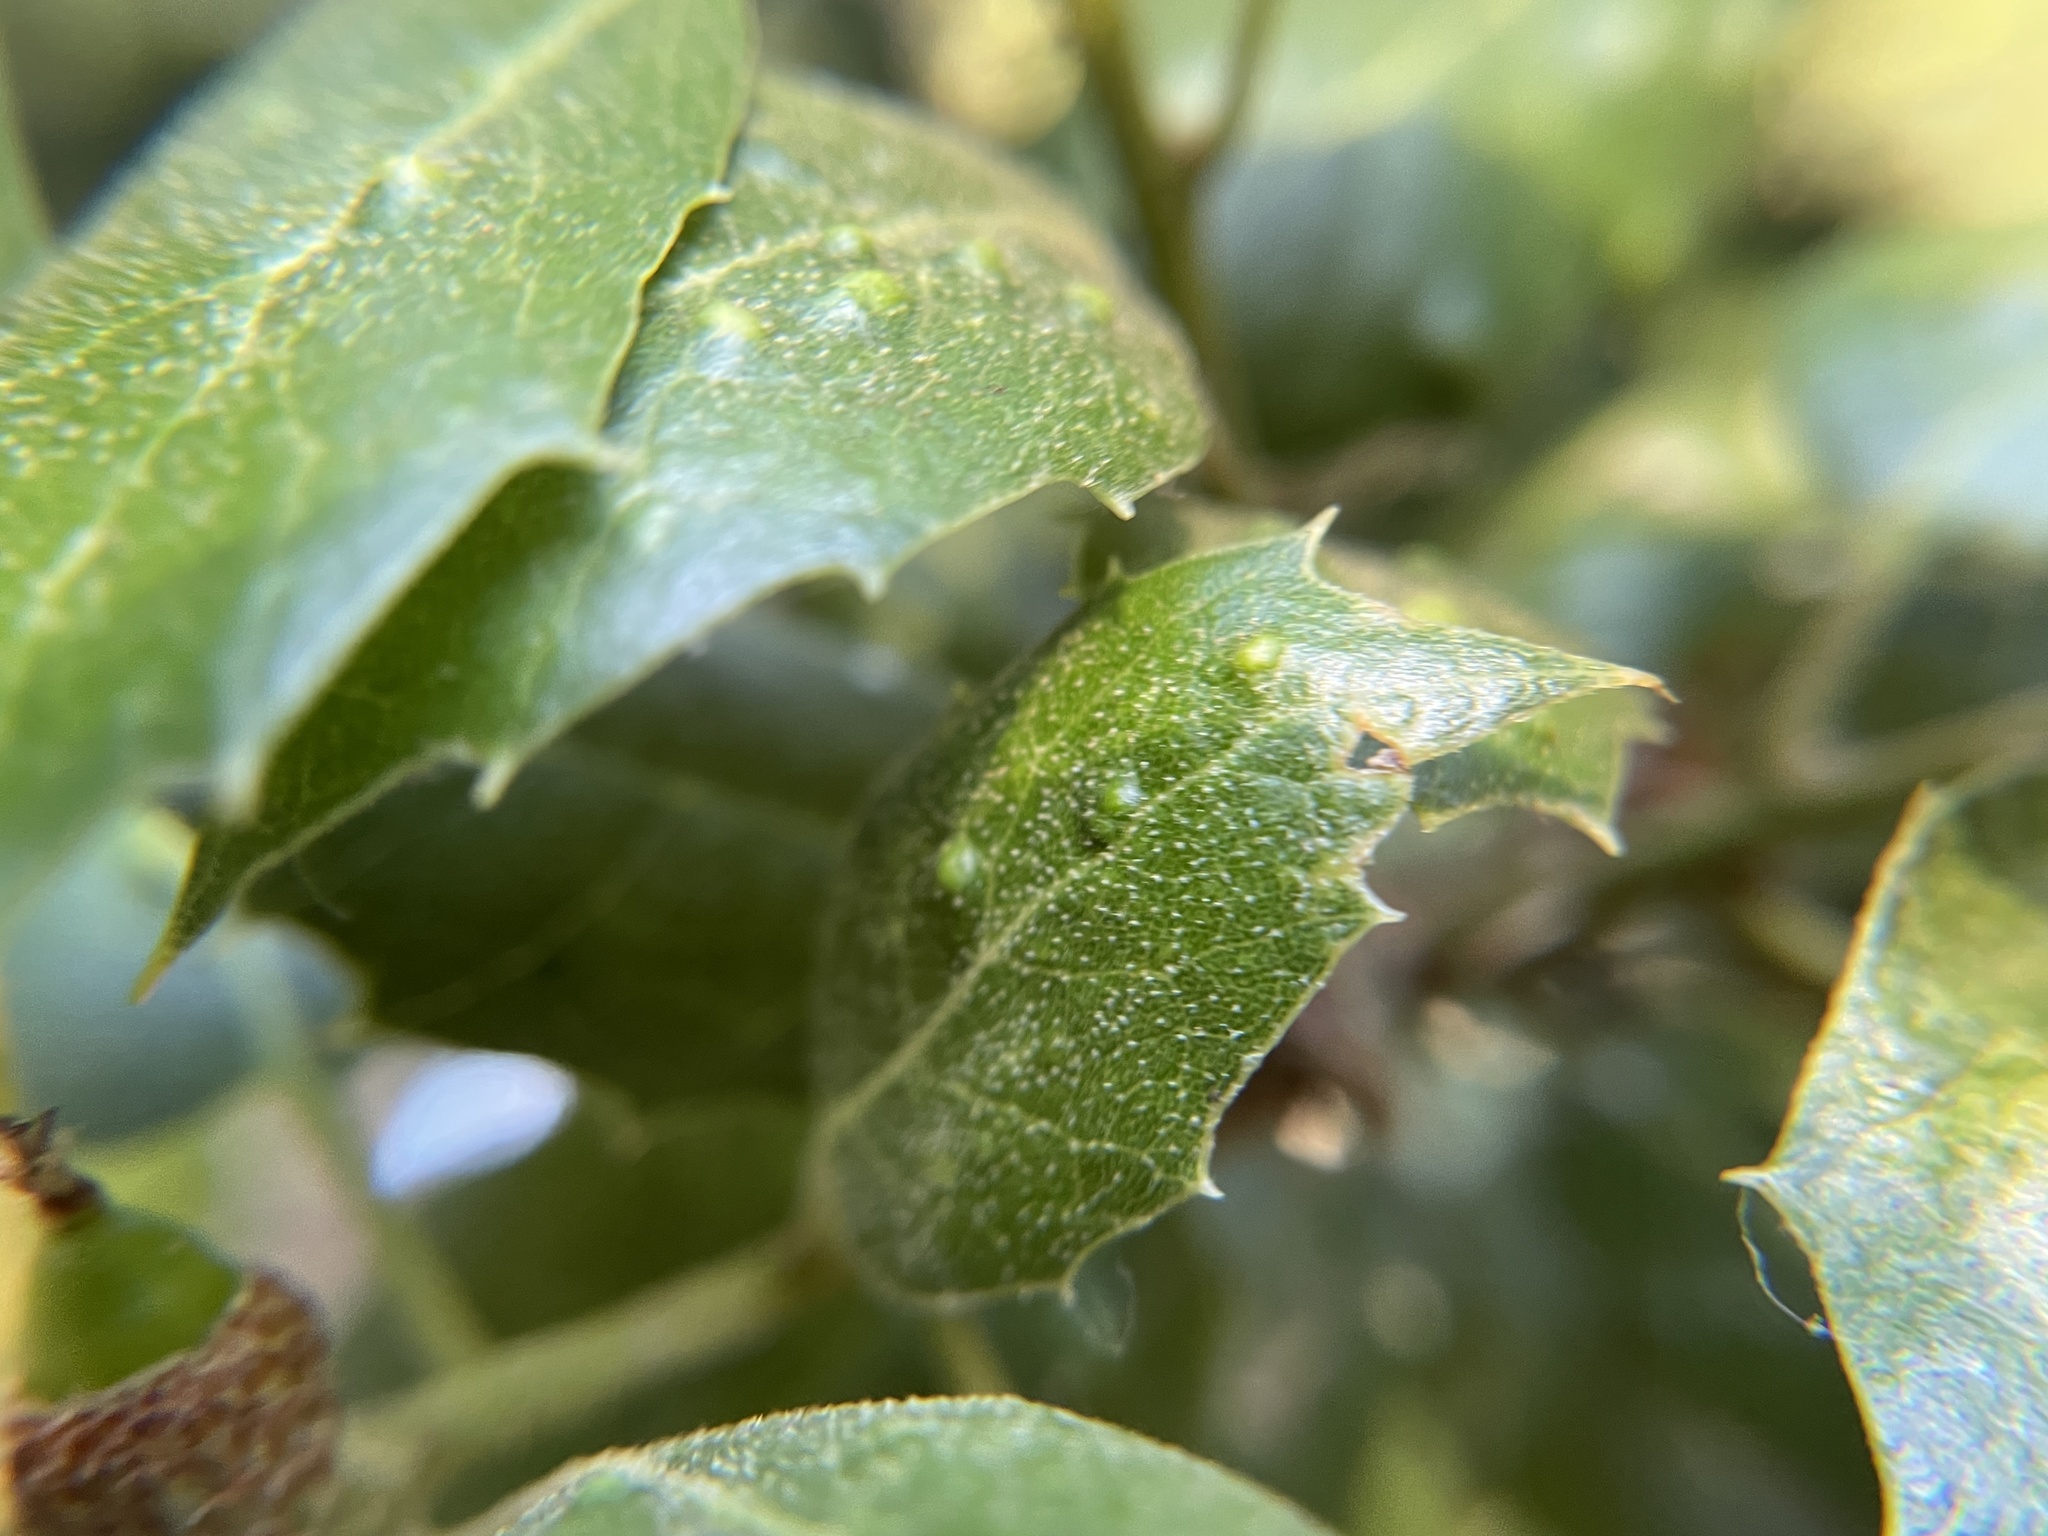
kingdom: Animalia
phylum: Arthropoda
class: Arachnida
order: Trombidiformes
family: Eriophyidae
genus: Aceria
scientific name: Aceria
